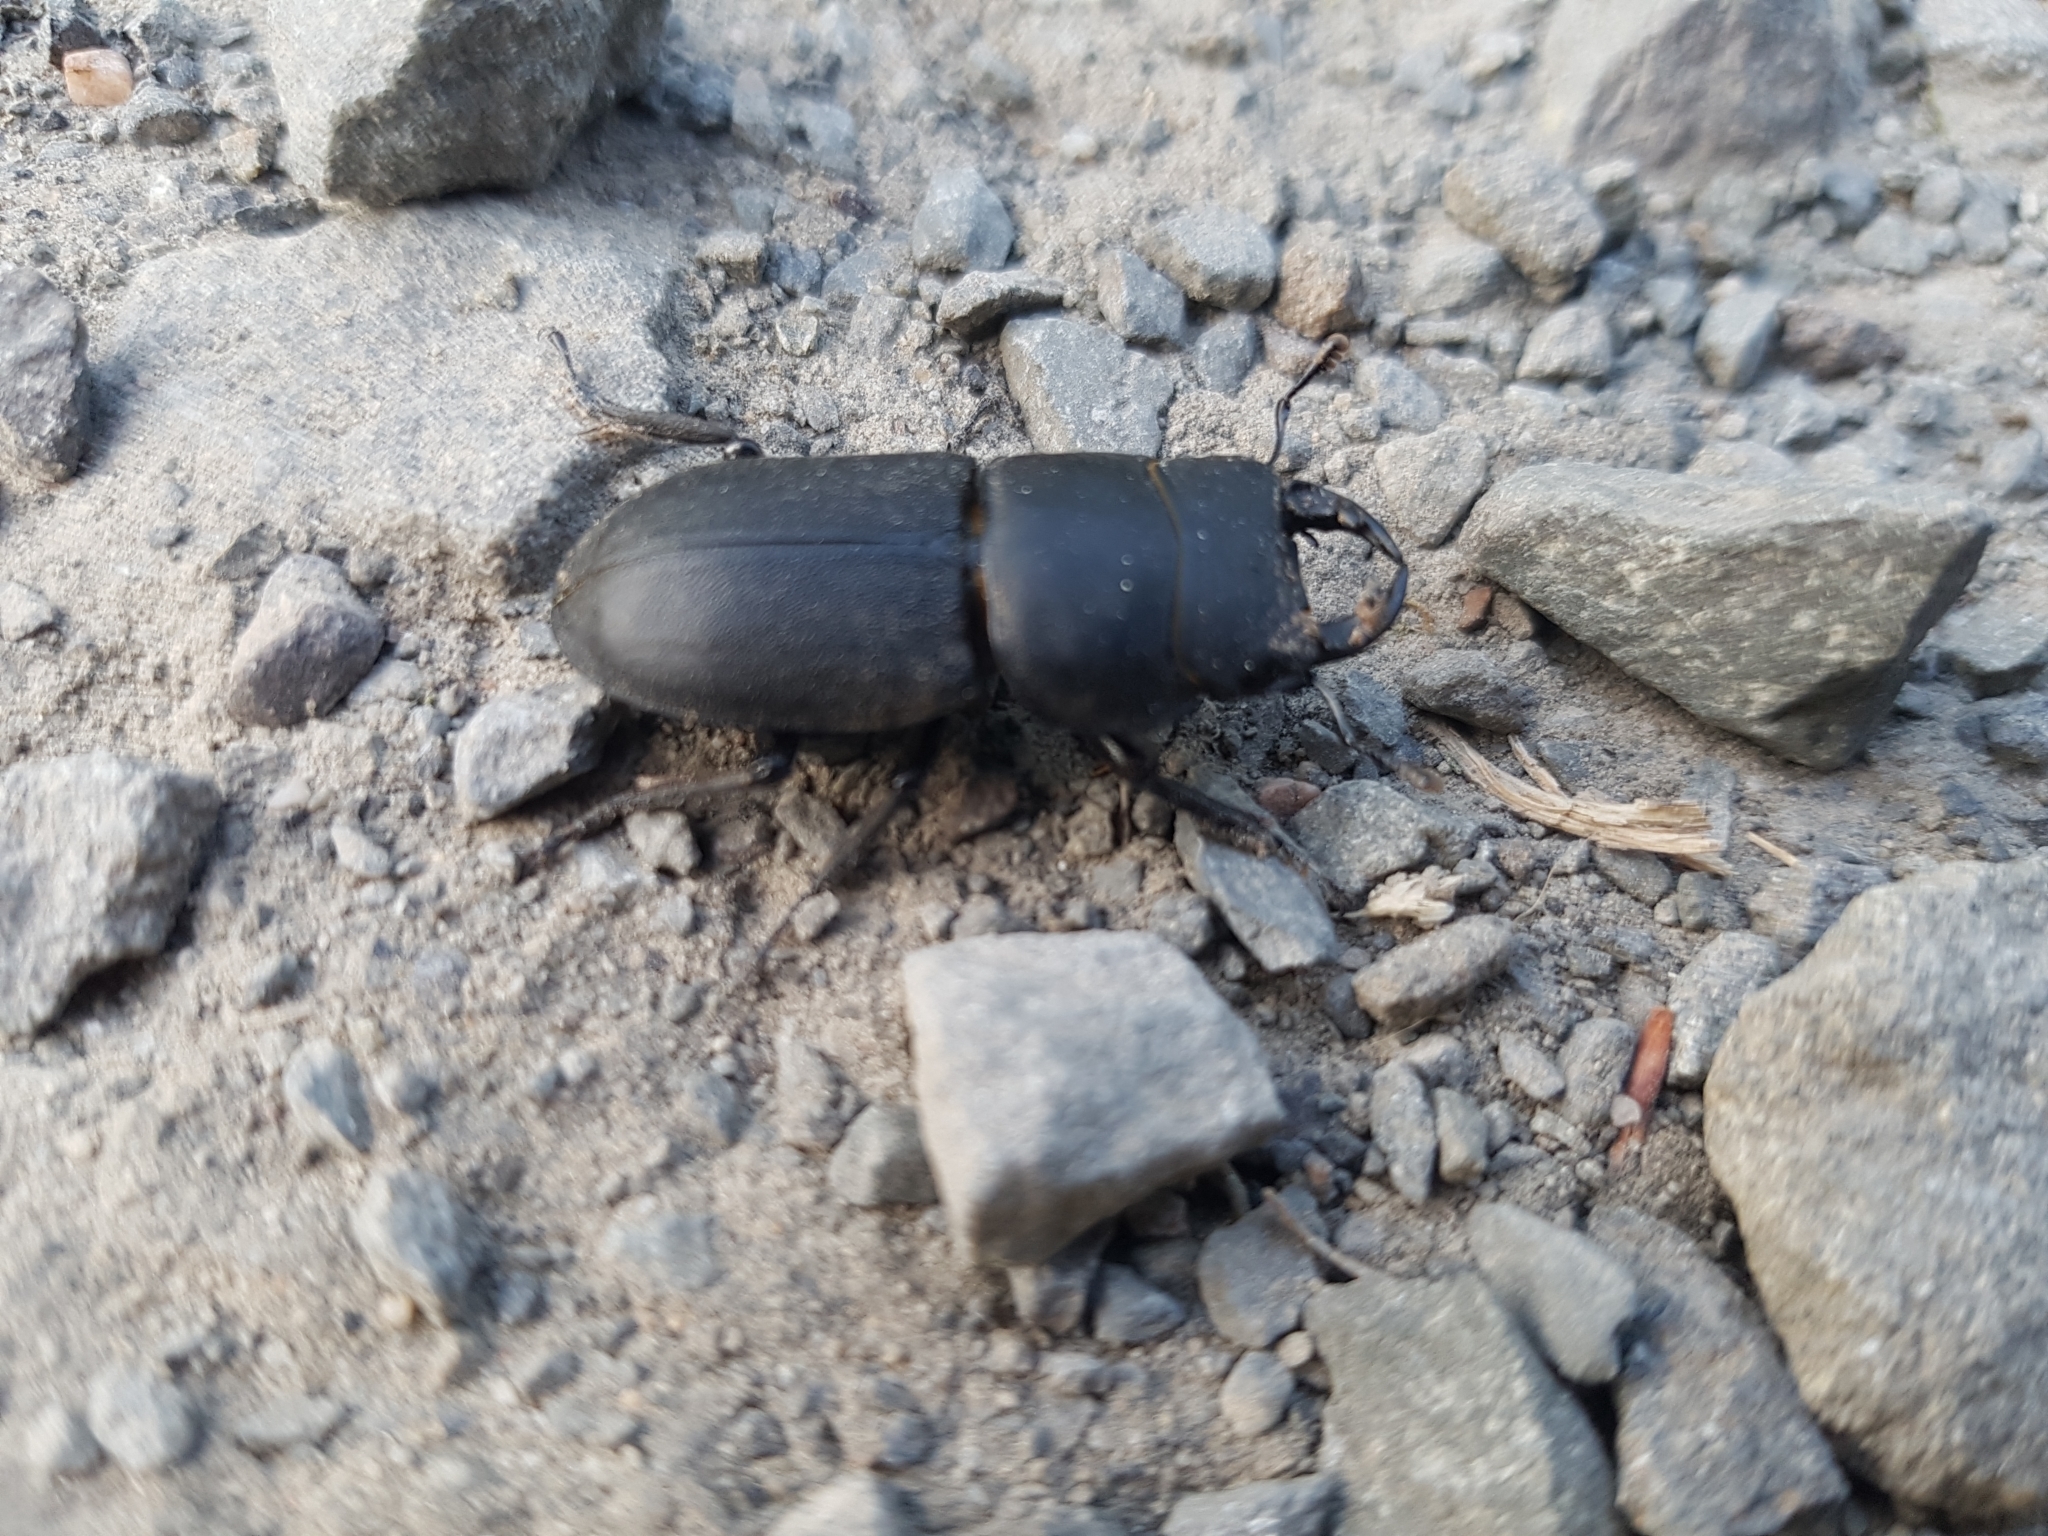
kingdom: Animalia
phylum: Arthropoda
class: Insecta
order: Coleoptera
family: Lucanidae
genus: Dorcus
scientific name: Dorcus parallelipipedus
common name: Lesser stag beetle
